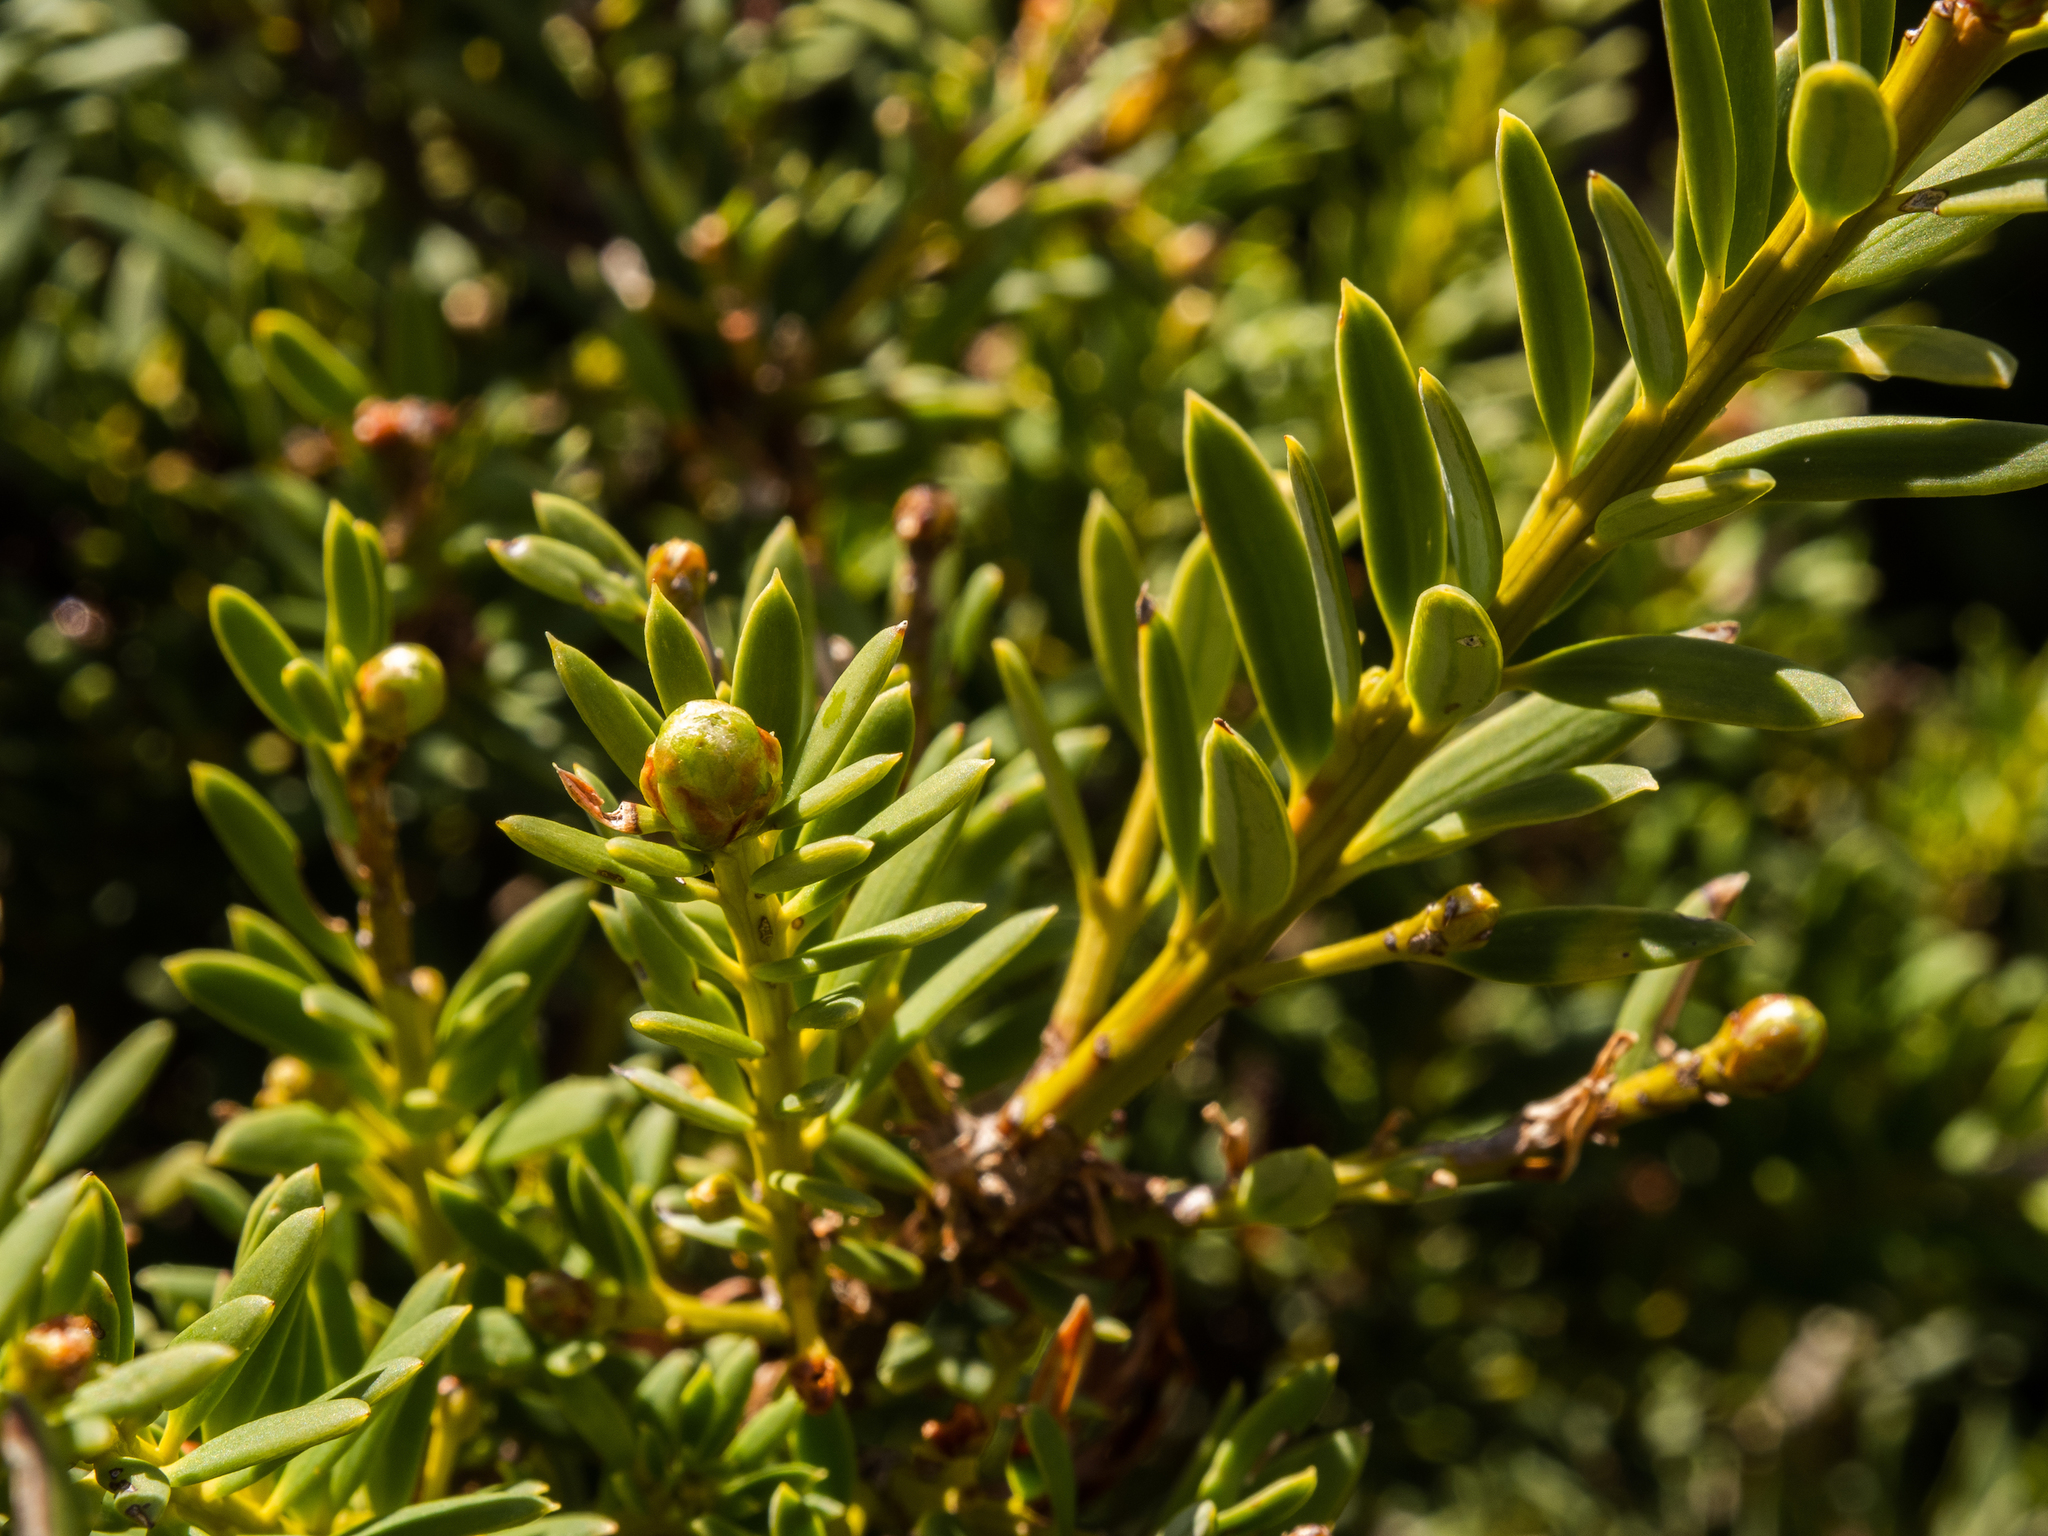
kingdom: Plantae
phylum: Tracheophyta
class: Pinopsida
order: Pinales
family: Podocarpaceae
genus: Podocarpus
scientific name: Podocarpus laetus
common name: Hall's totara
